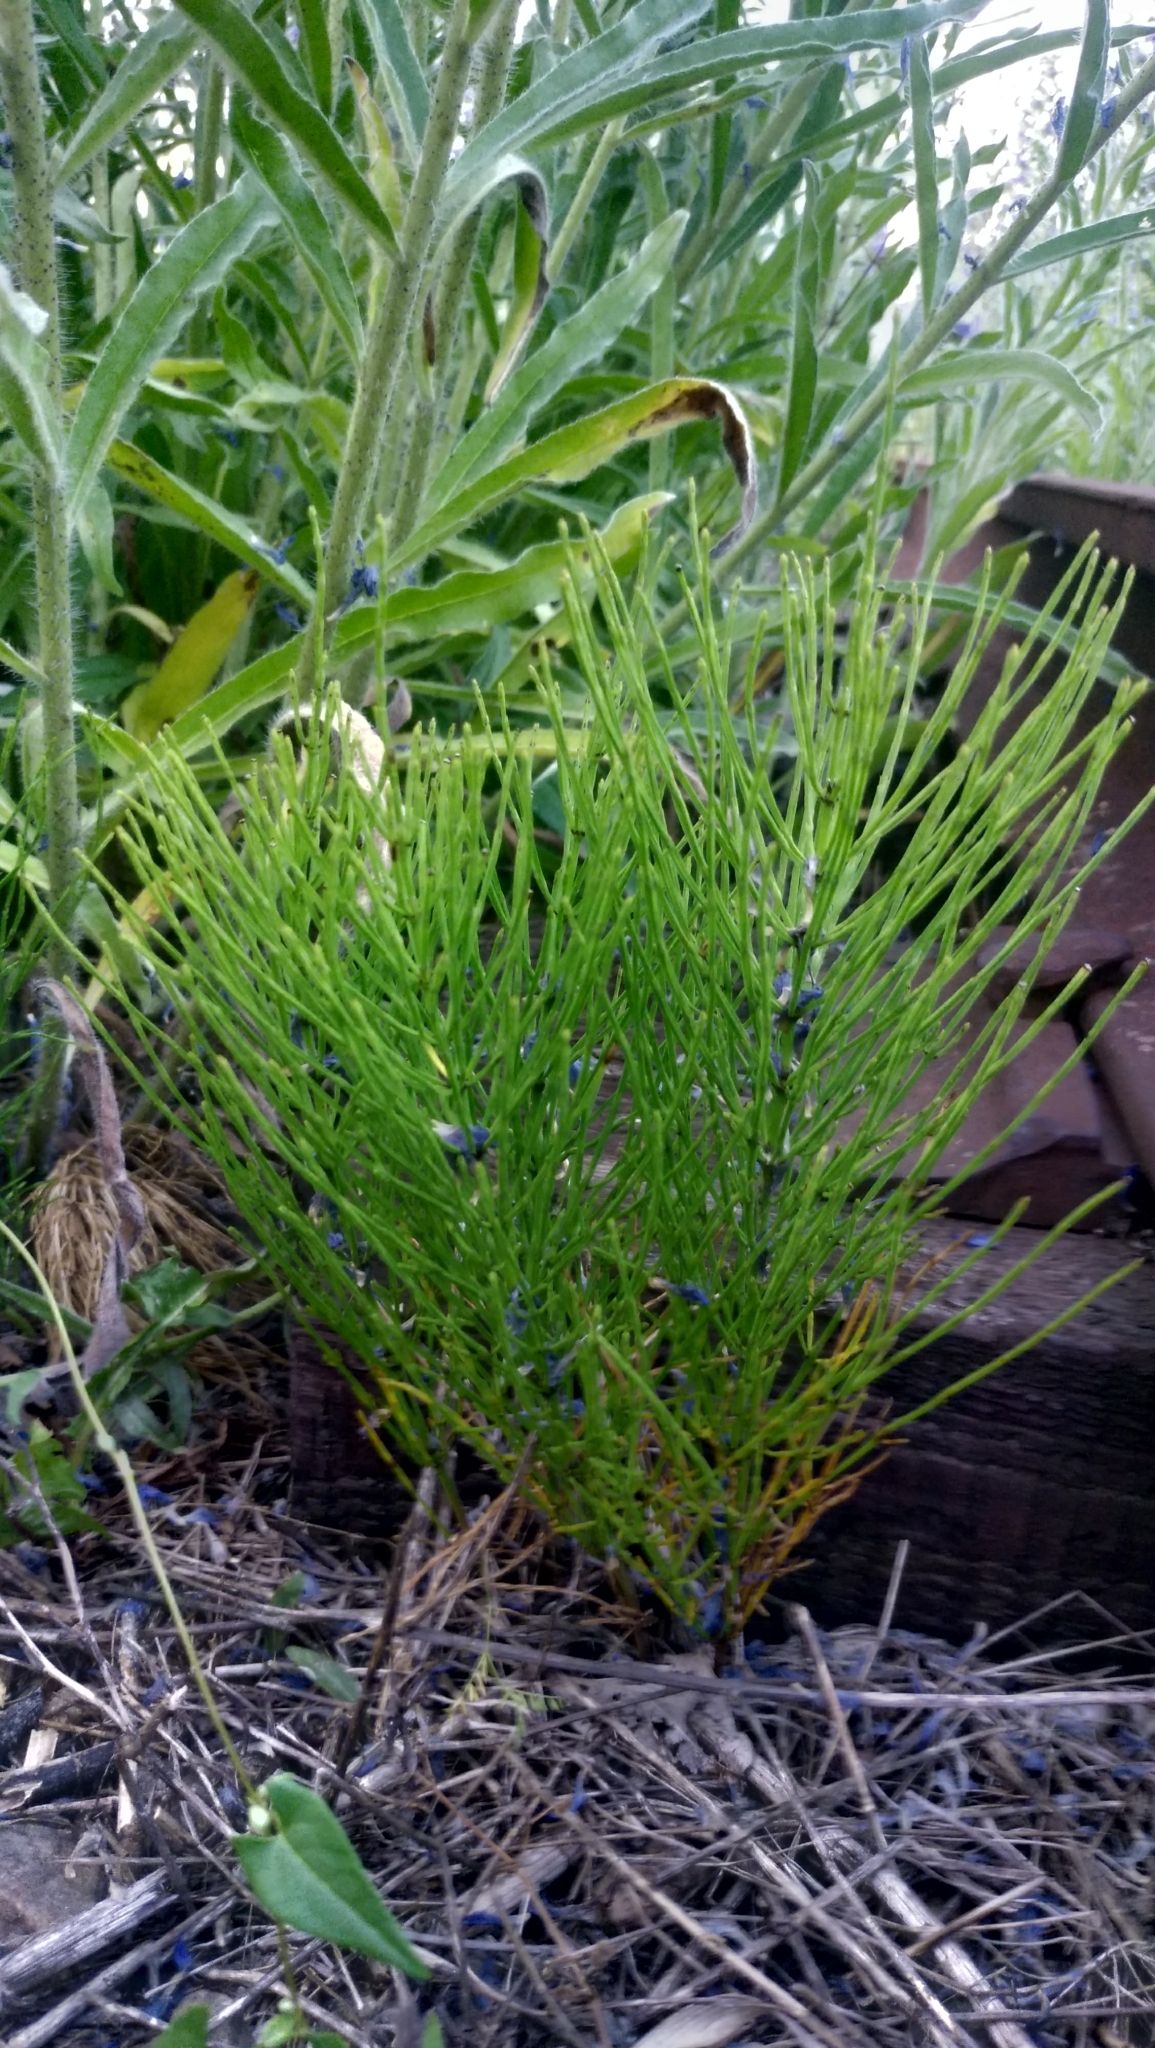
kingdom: Plantae
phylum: Tracheophyta
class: Polypodiopsida
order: Equisetales
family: Equisetaceae
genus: Equisetum
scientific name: Equisetum arvense
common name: Field horsetail
